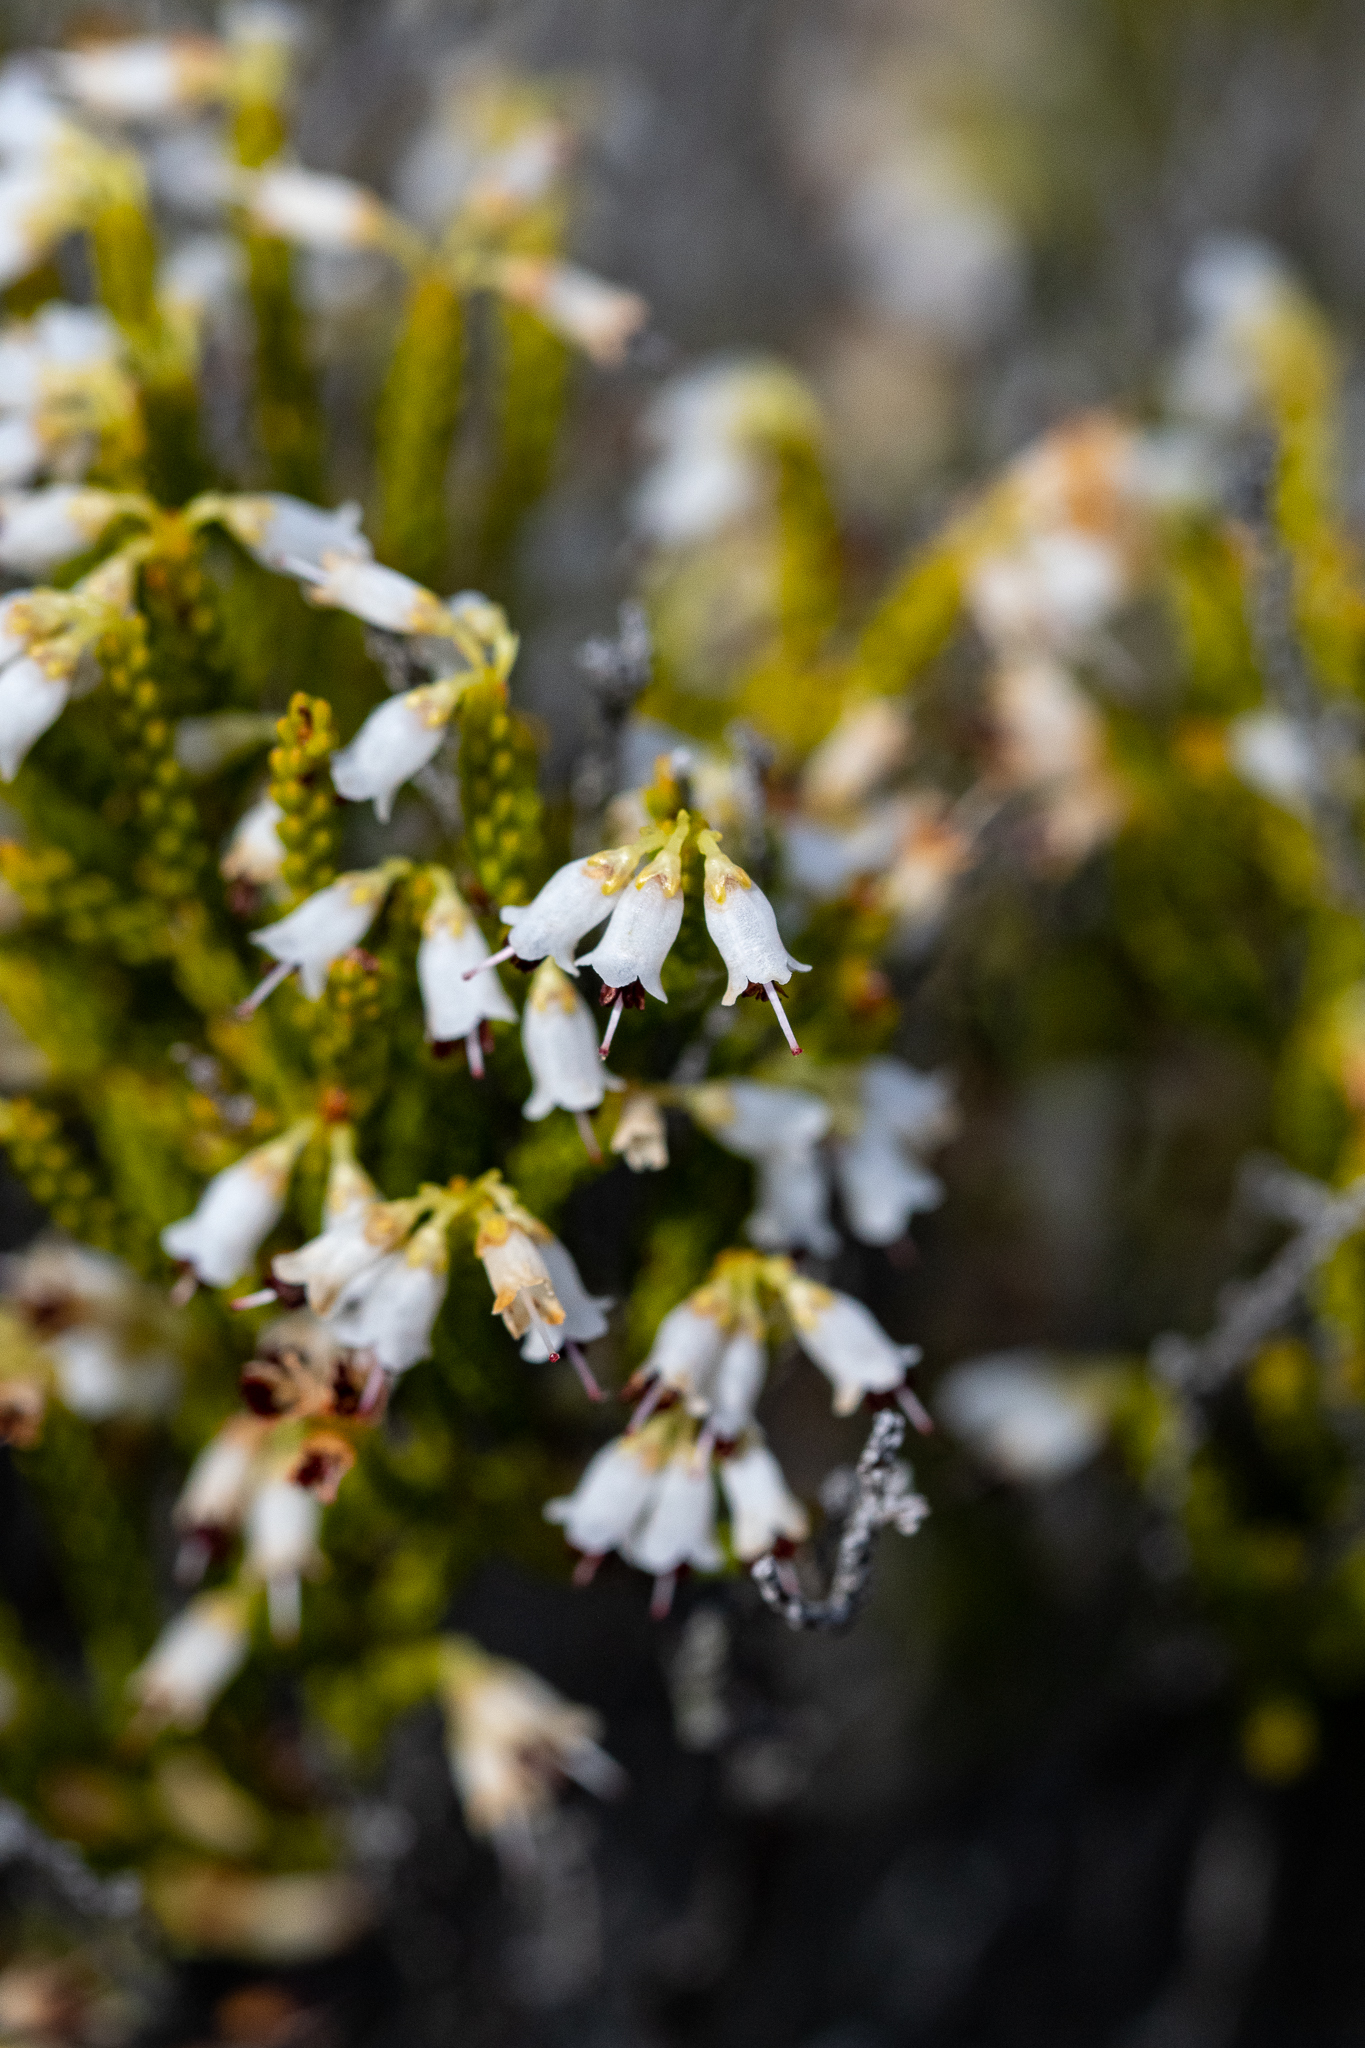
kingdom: Plantae
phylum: Tracheophyta
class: Magnoliopsida
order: Ericales
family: Ericaceae
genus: Erica
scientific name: Erica equisetifolia
